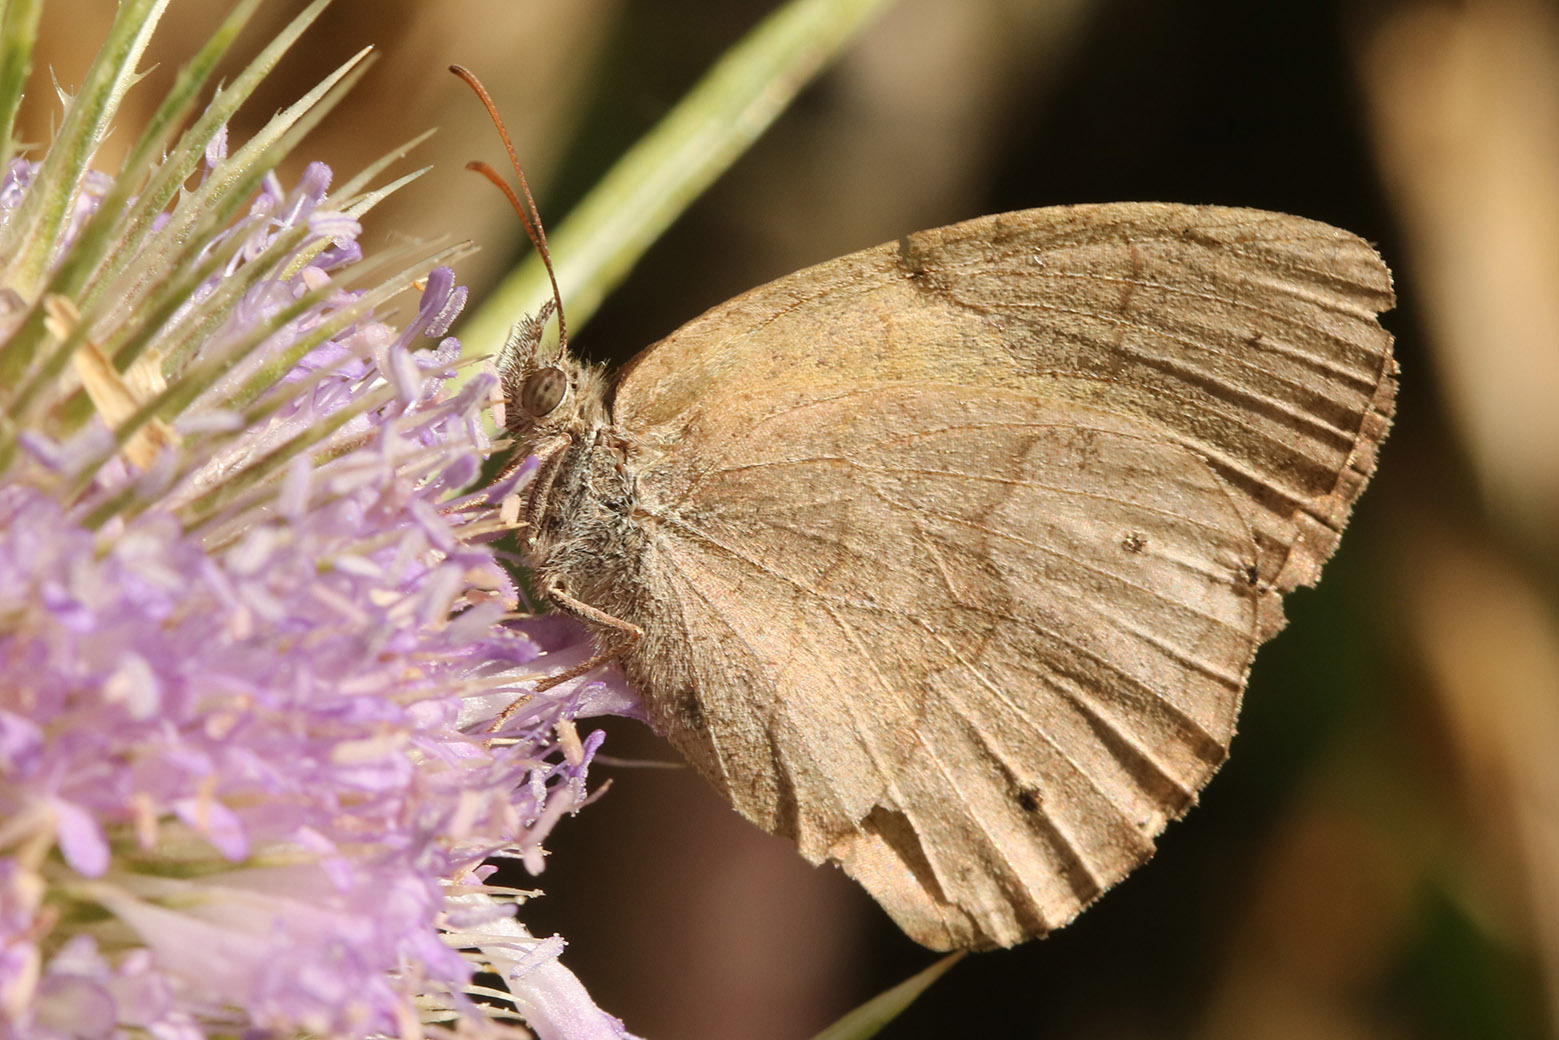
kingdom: Animalia
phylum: Arthropoda
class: Insecta
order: Lepidoptera
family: Nymphalidae
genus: Yphthimoides
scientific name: Yphthimoides celmis
